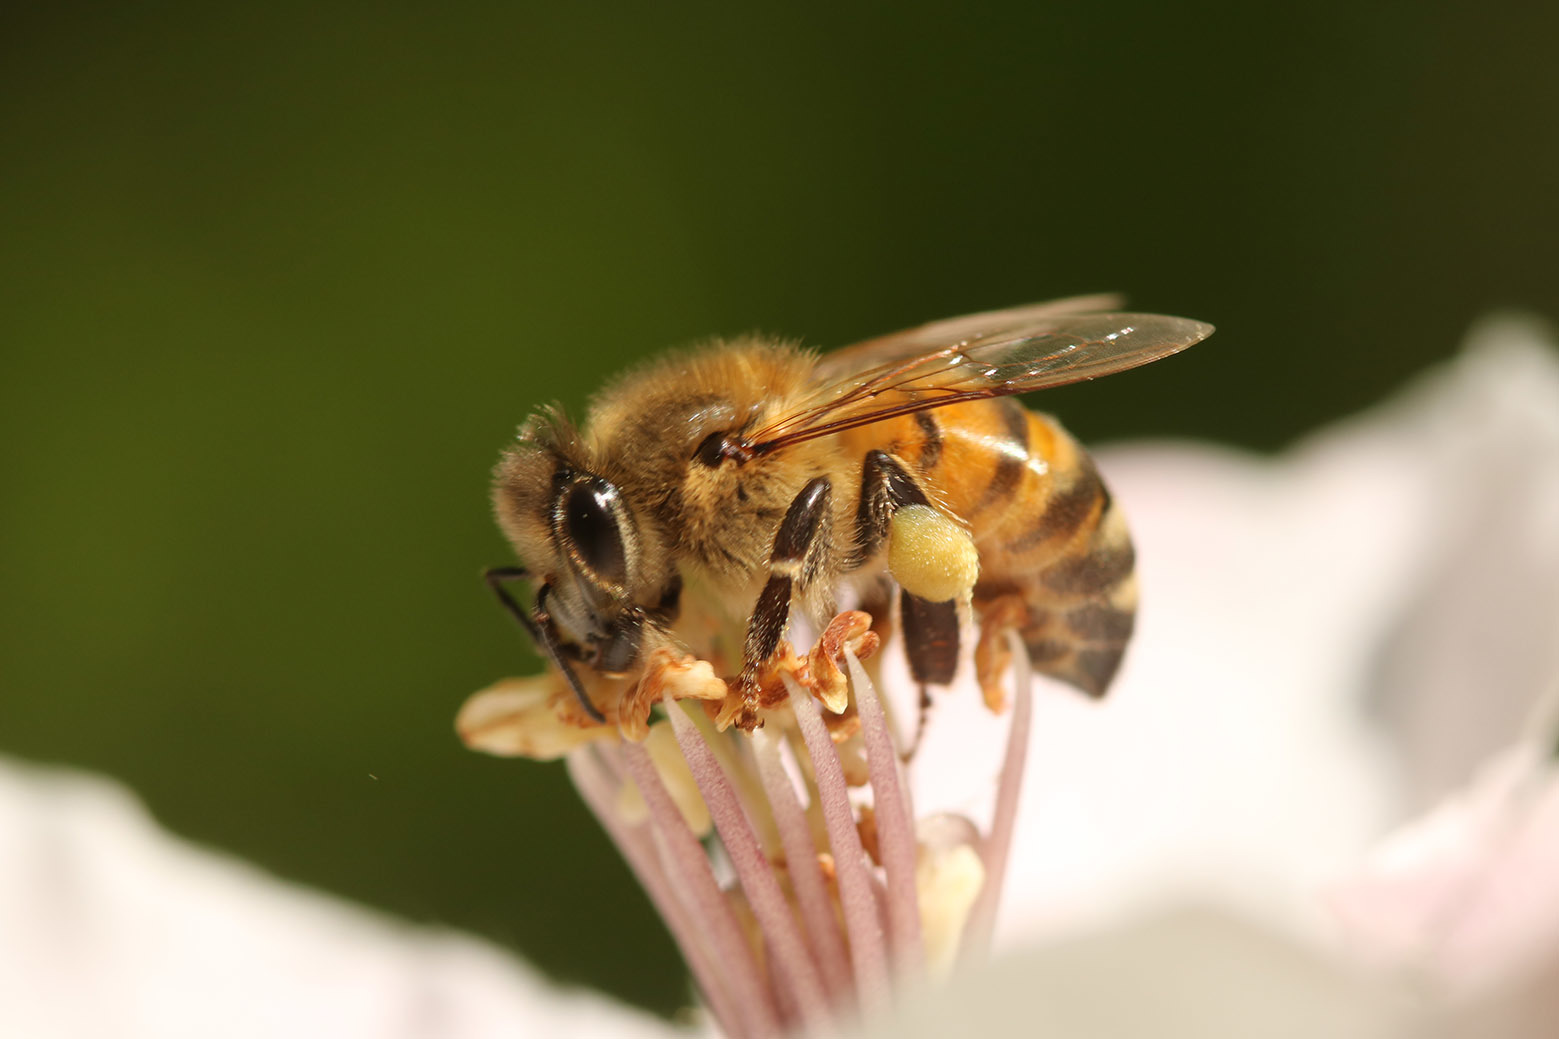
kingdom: Animalia
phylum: Arthropoda
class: Insecta
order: Hymenoptera
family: Apidae
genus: Apis
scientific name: Apis mellifera
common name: Honey bee
